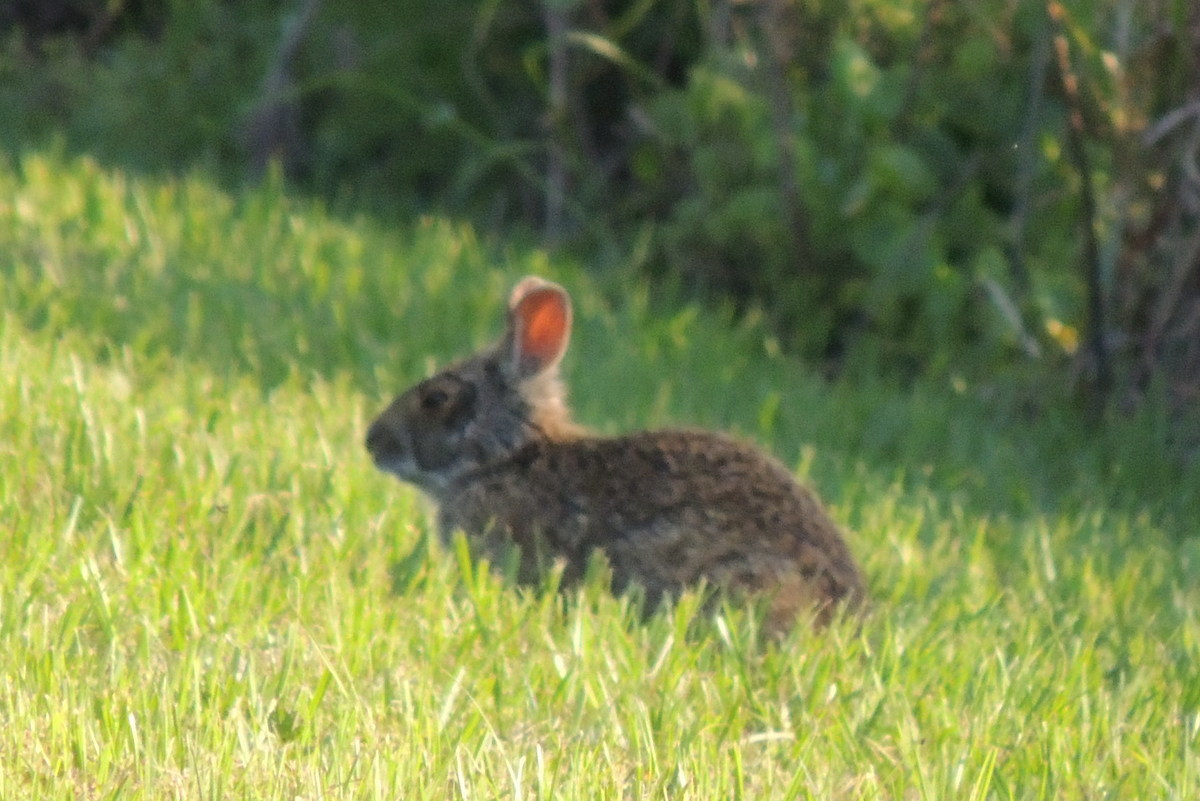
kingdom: Animalia
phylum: Chordata
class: Mammalia
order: Lagomorpha
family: Leporidae
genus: Sylvilagus
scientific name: Sylvilagus palustris
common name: Marsh rabbit
